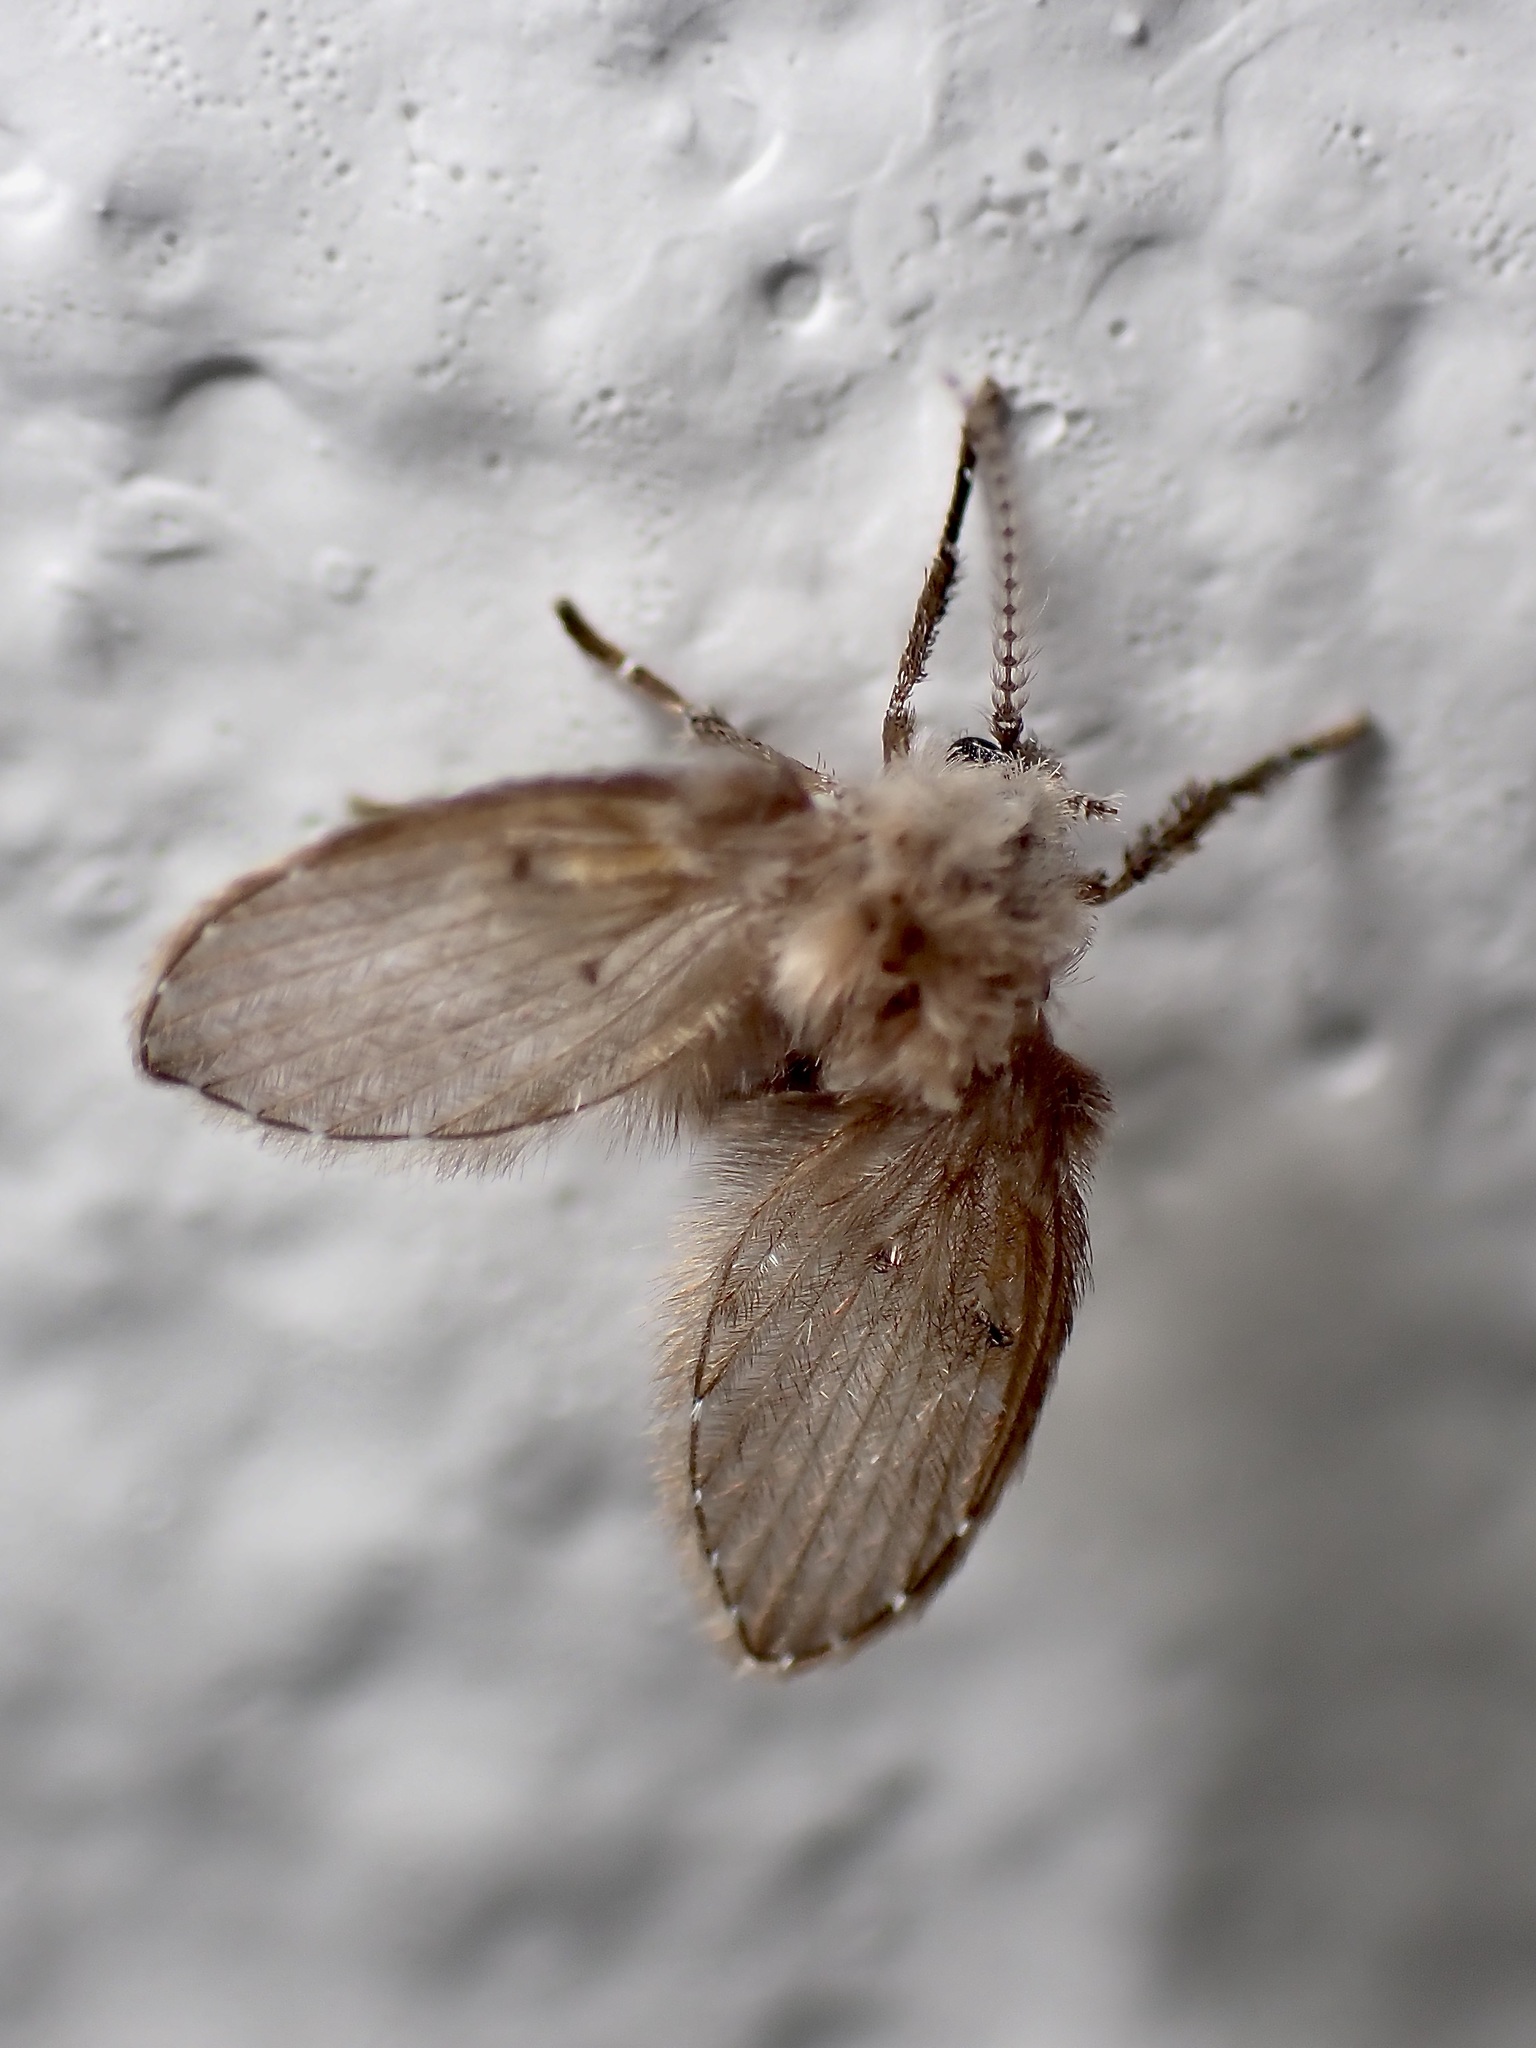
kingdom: Animalia
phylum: Arthropoda
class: Insecta
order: Diptera
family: Psychodidae
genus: Clogmia
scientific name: Clogmia albipunctatus
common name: White-spotted moth fly
